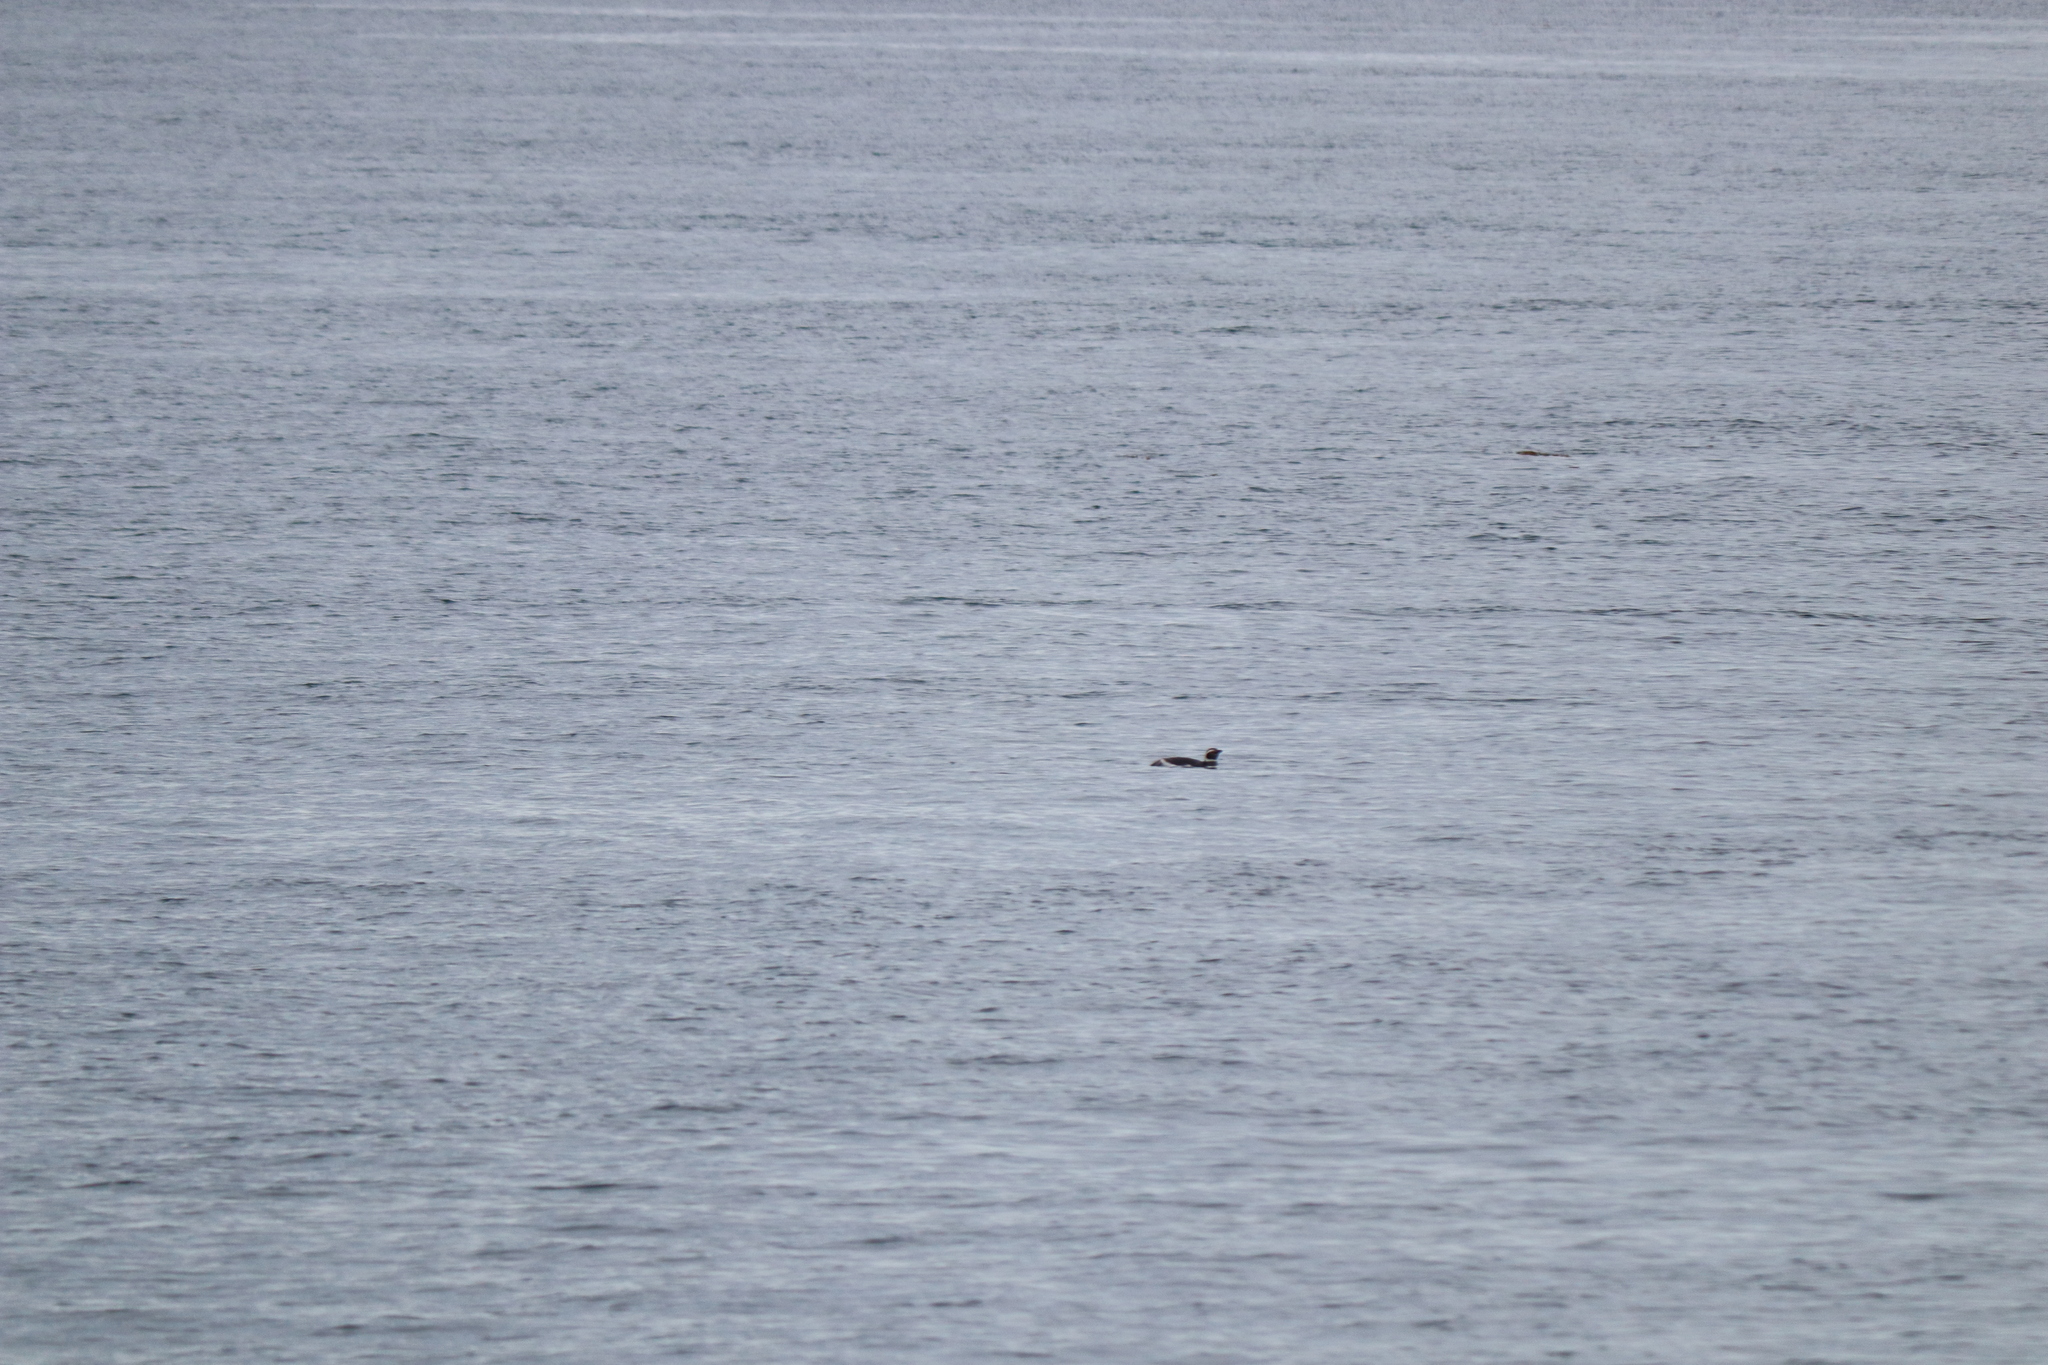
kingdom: Animalia
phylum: Chordata
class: Aves
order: Sphenisciformes
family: Spheniscidae
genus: Spheniscus
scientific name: Spheniscus magellanicus
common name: Magellanic penguin
